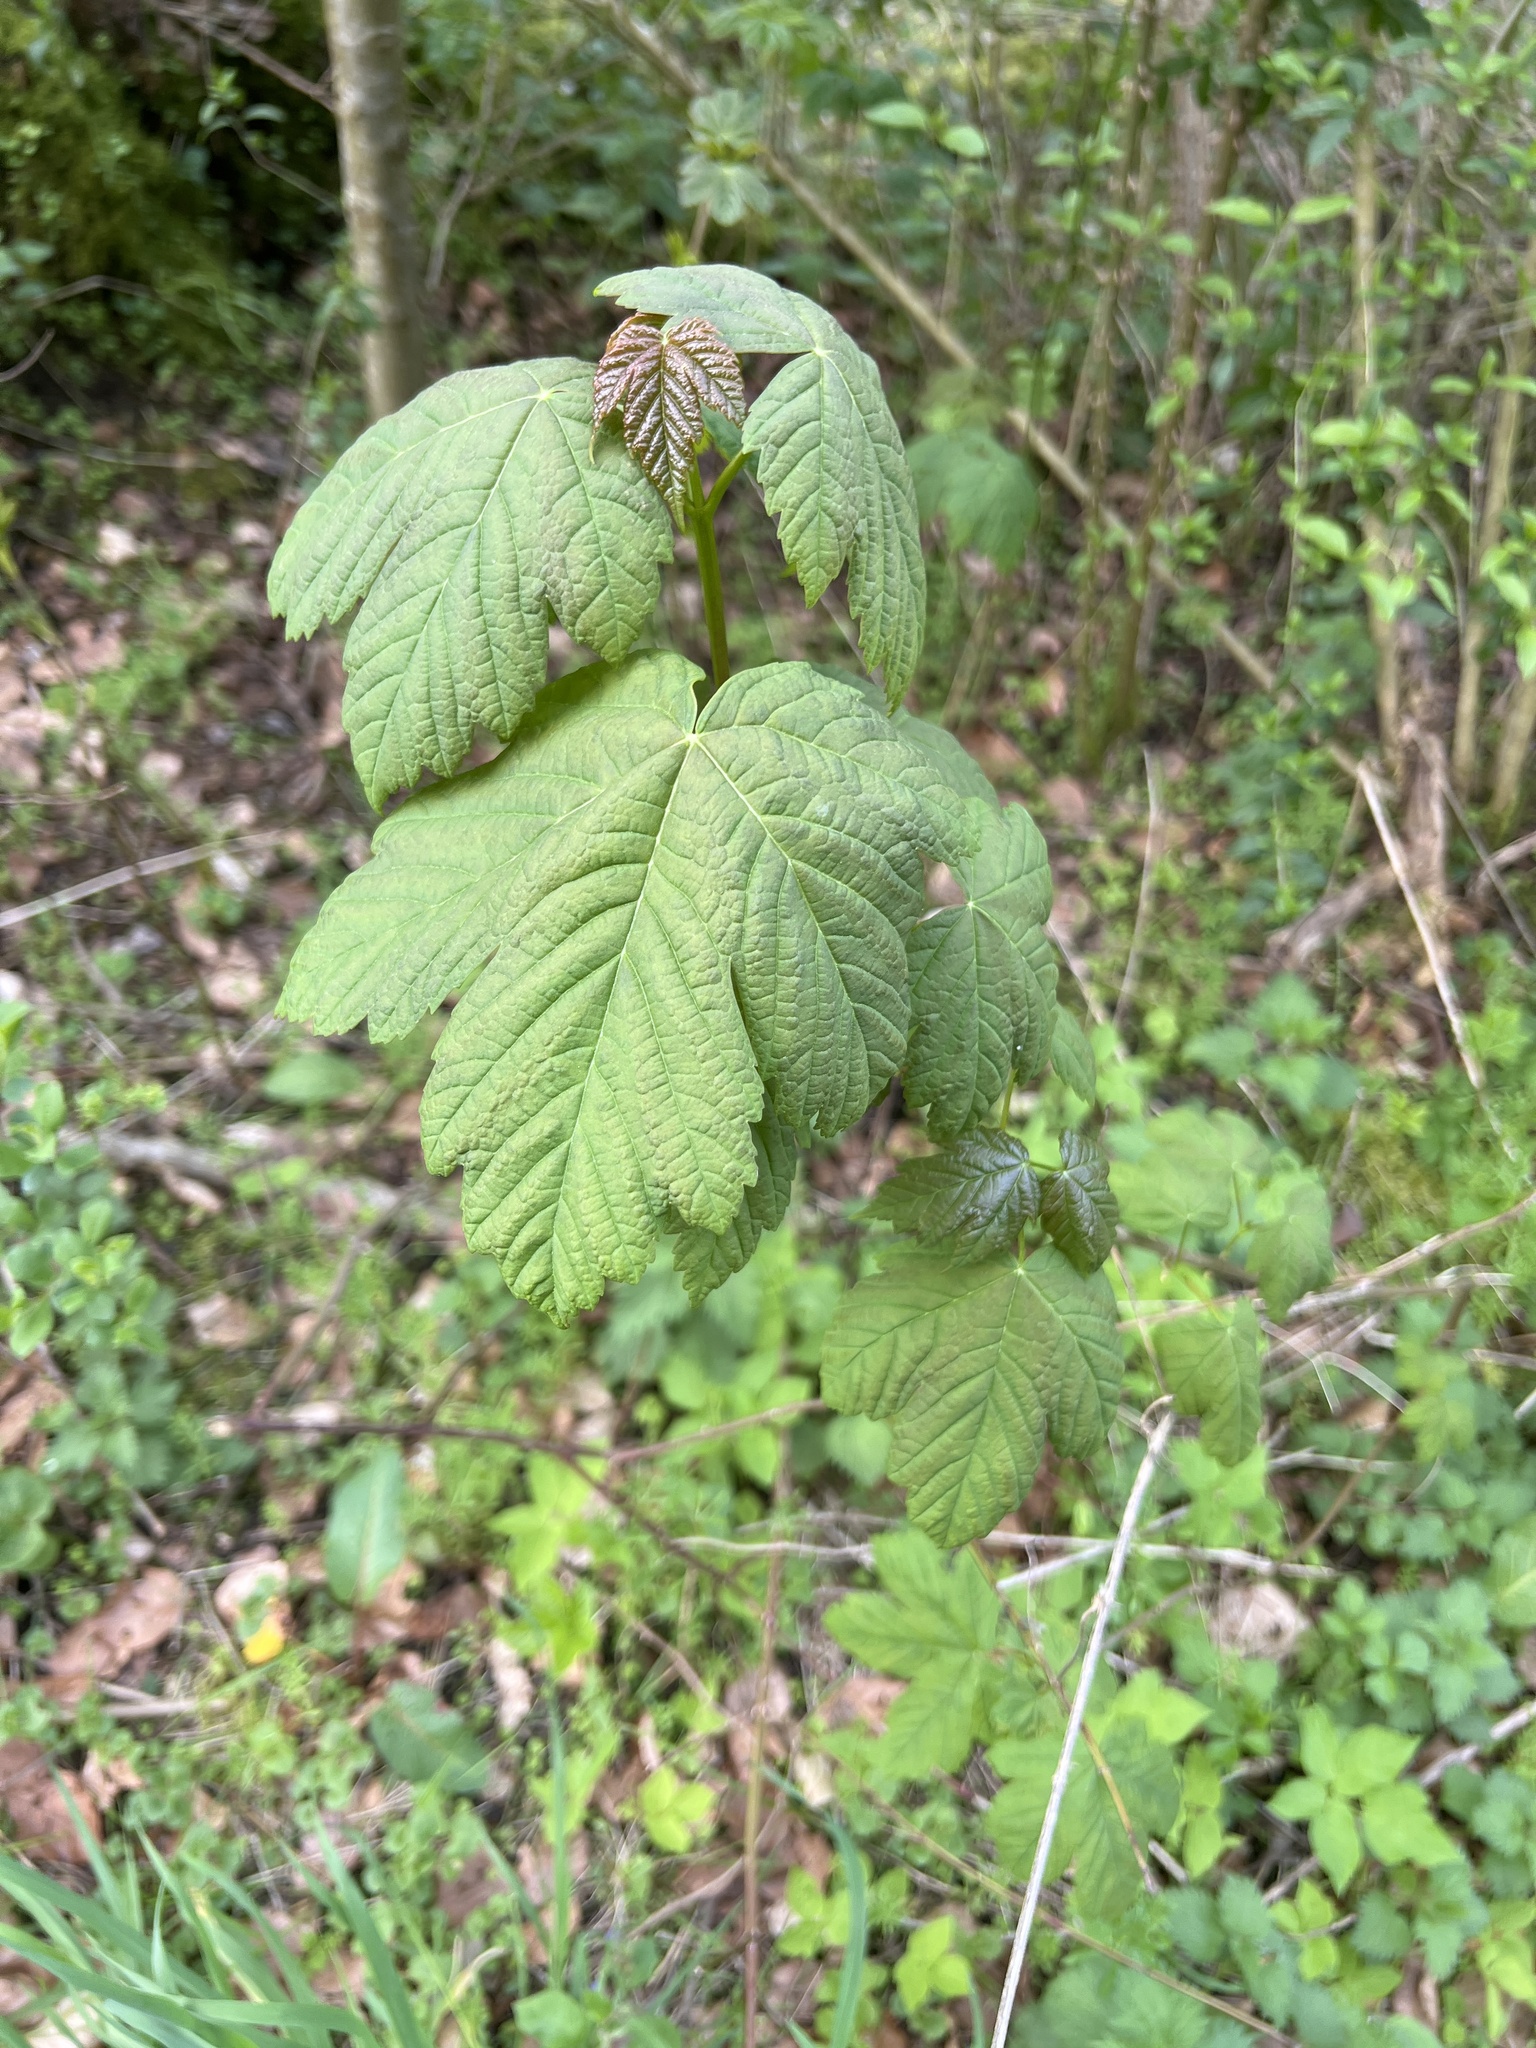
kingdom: Plantae
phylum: Tracheophyta
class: Magnoliopsida
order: Sapindales
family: Sapindaceae
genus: Acer
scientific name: Acer pseudoplatanus
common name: Sycamore
